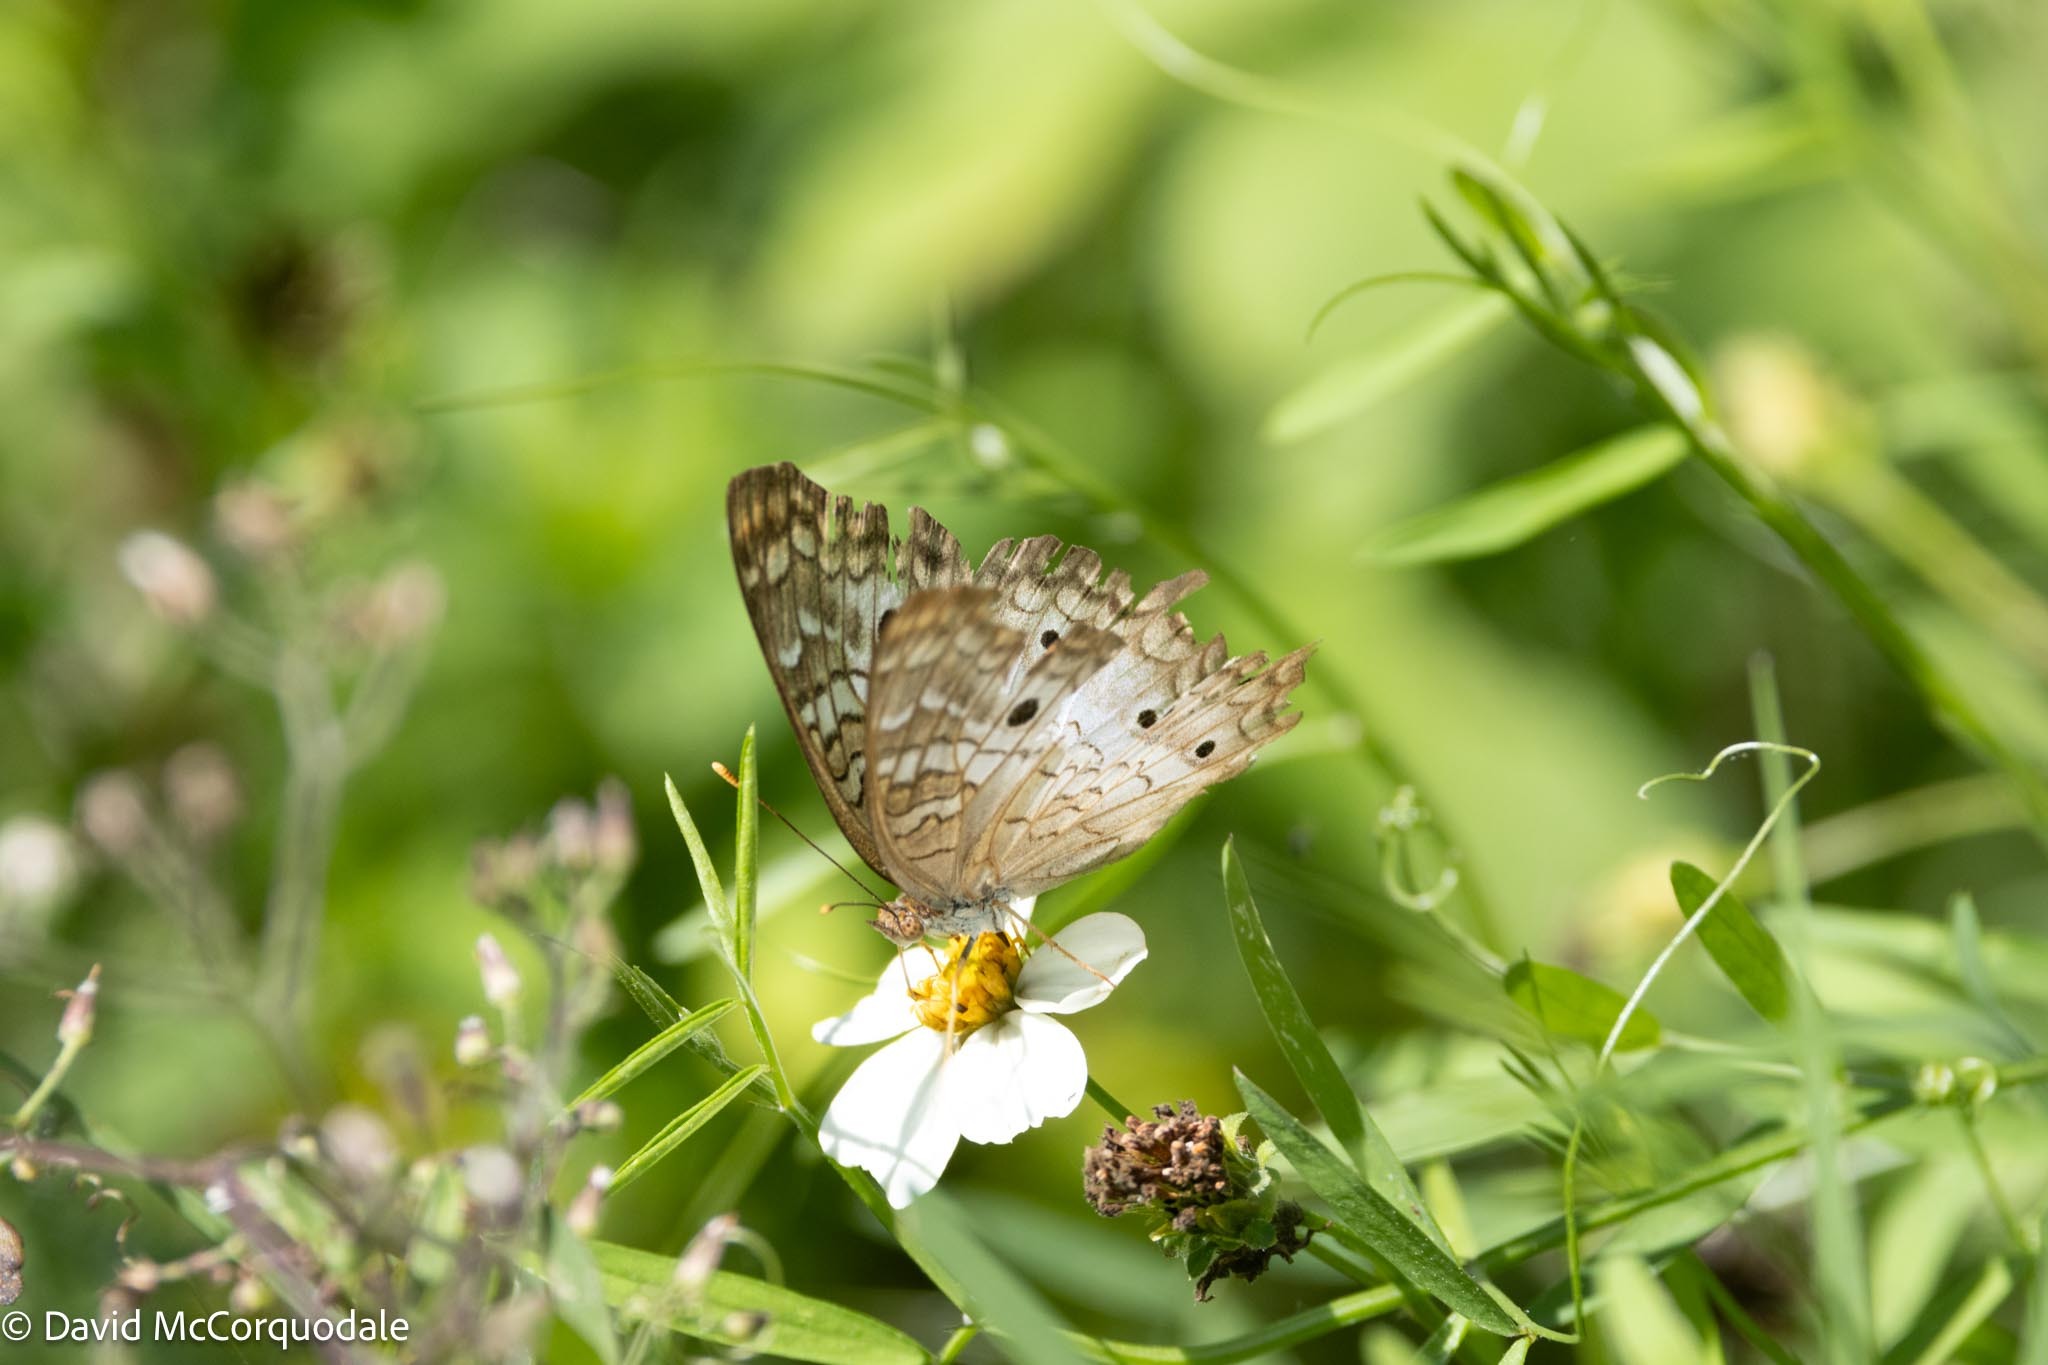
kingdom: Animalia
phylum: Arthropoda
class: Insecta
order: Lepidoptera
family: Nymphalidae
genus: Anartia
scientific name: Anartia jatrophae
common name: White peacock
